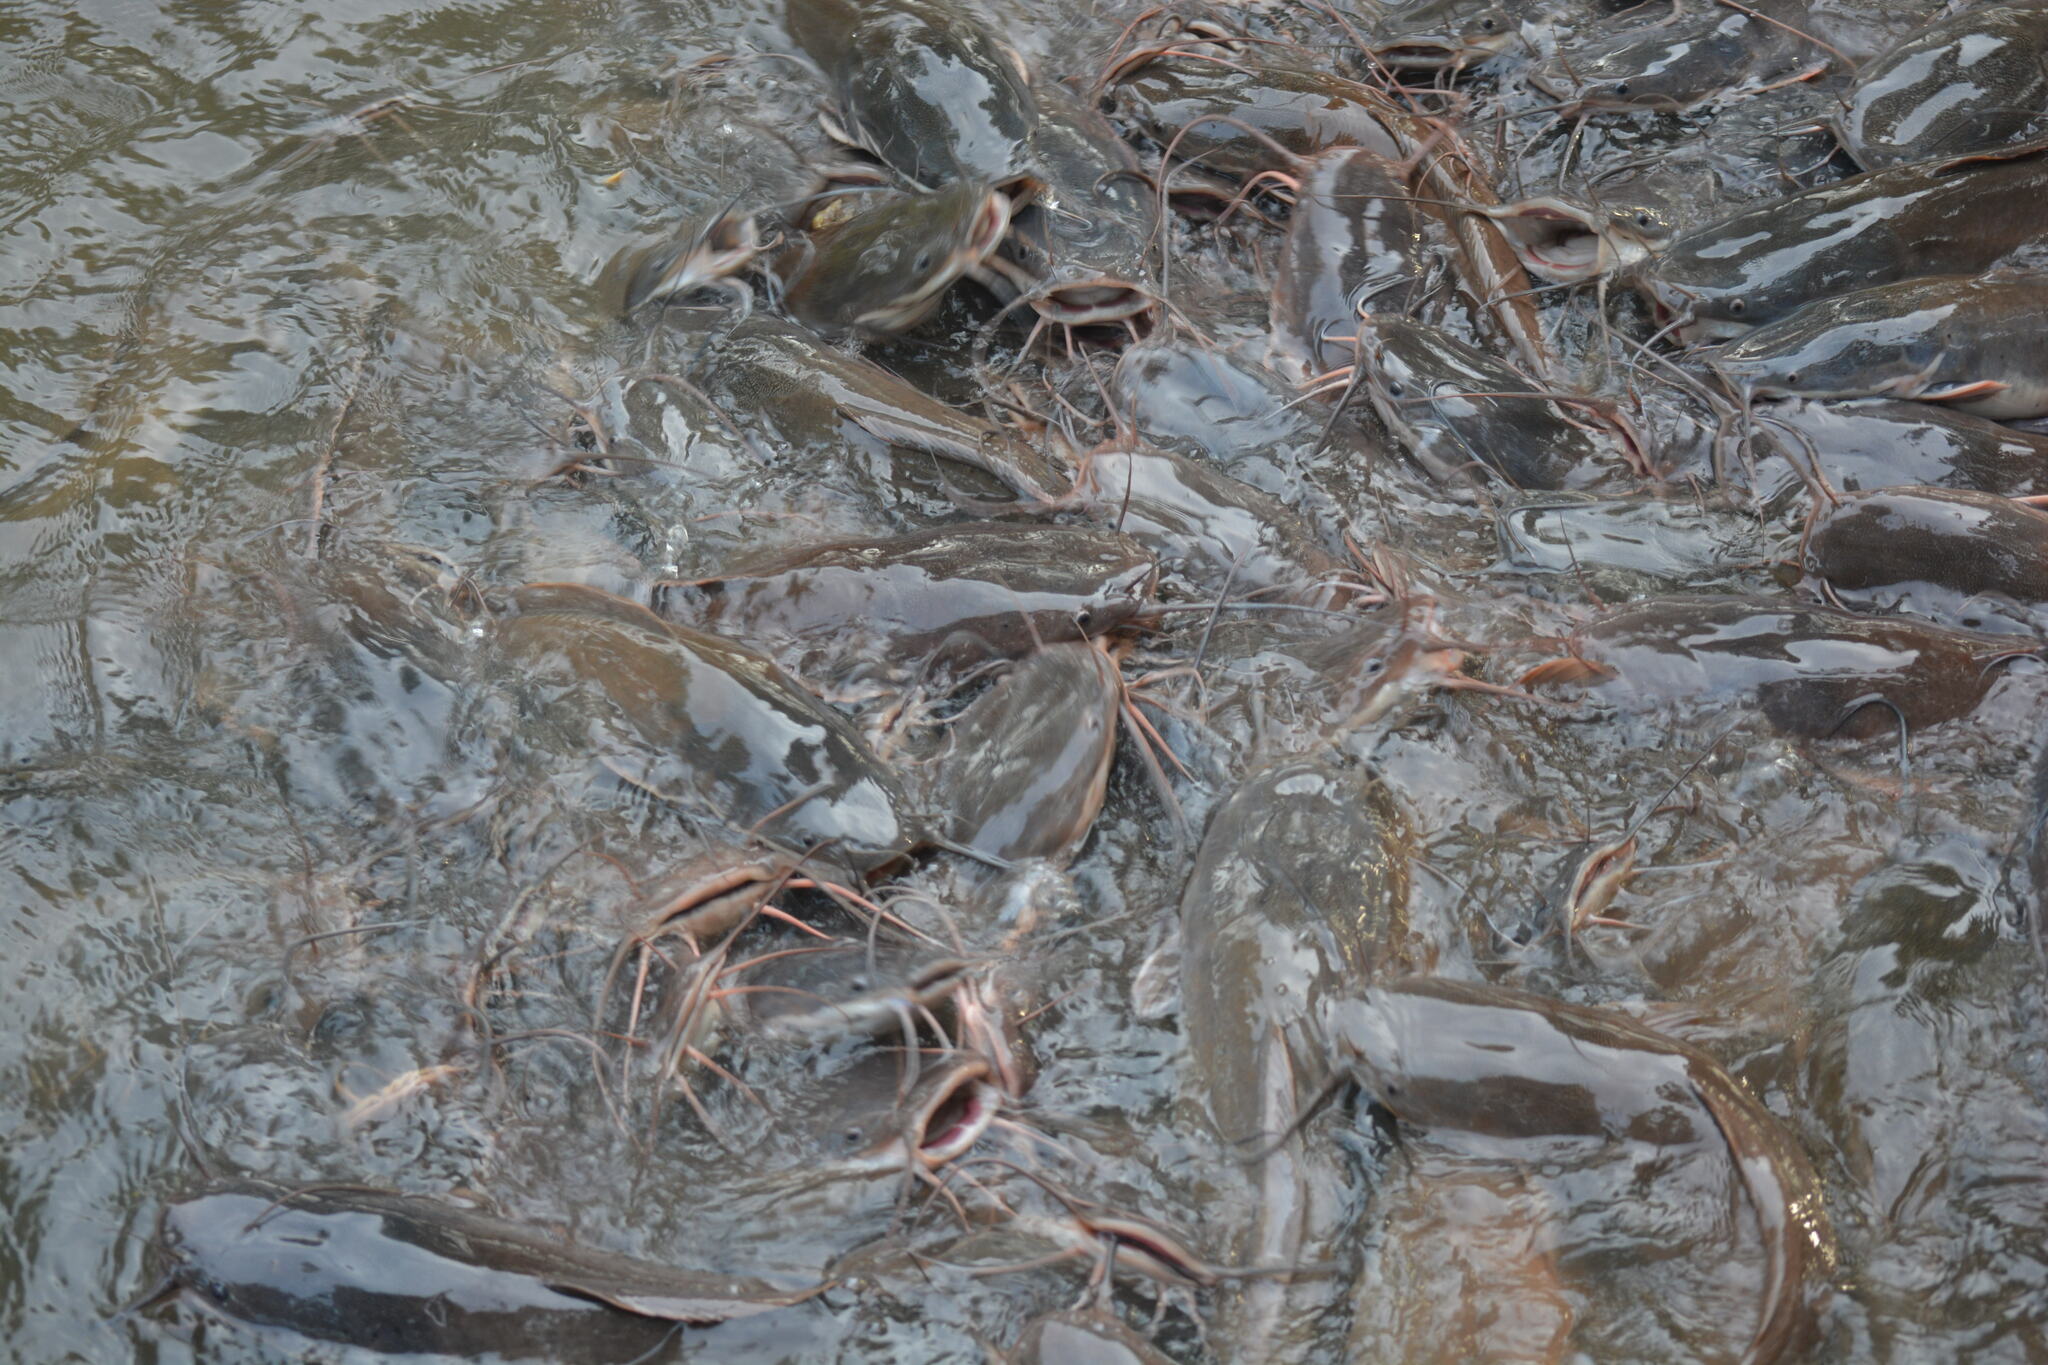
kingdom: Animalia
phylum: Chordata
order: Siluriformes
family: Clariidae
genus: Clarias
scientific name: Clarias gariepinus
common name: African catfish
